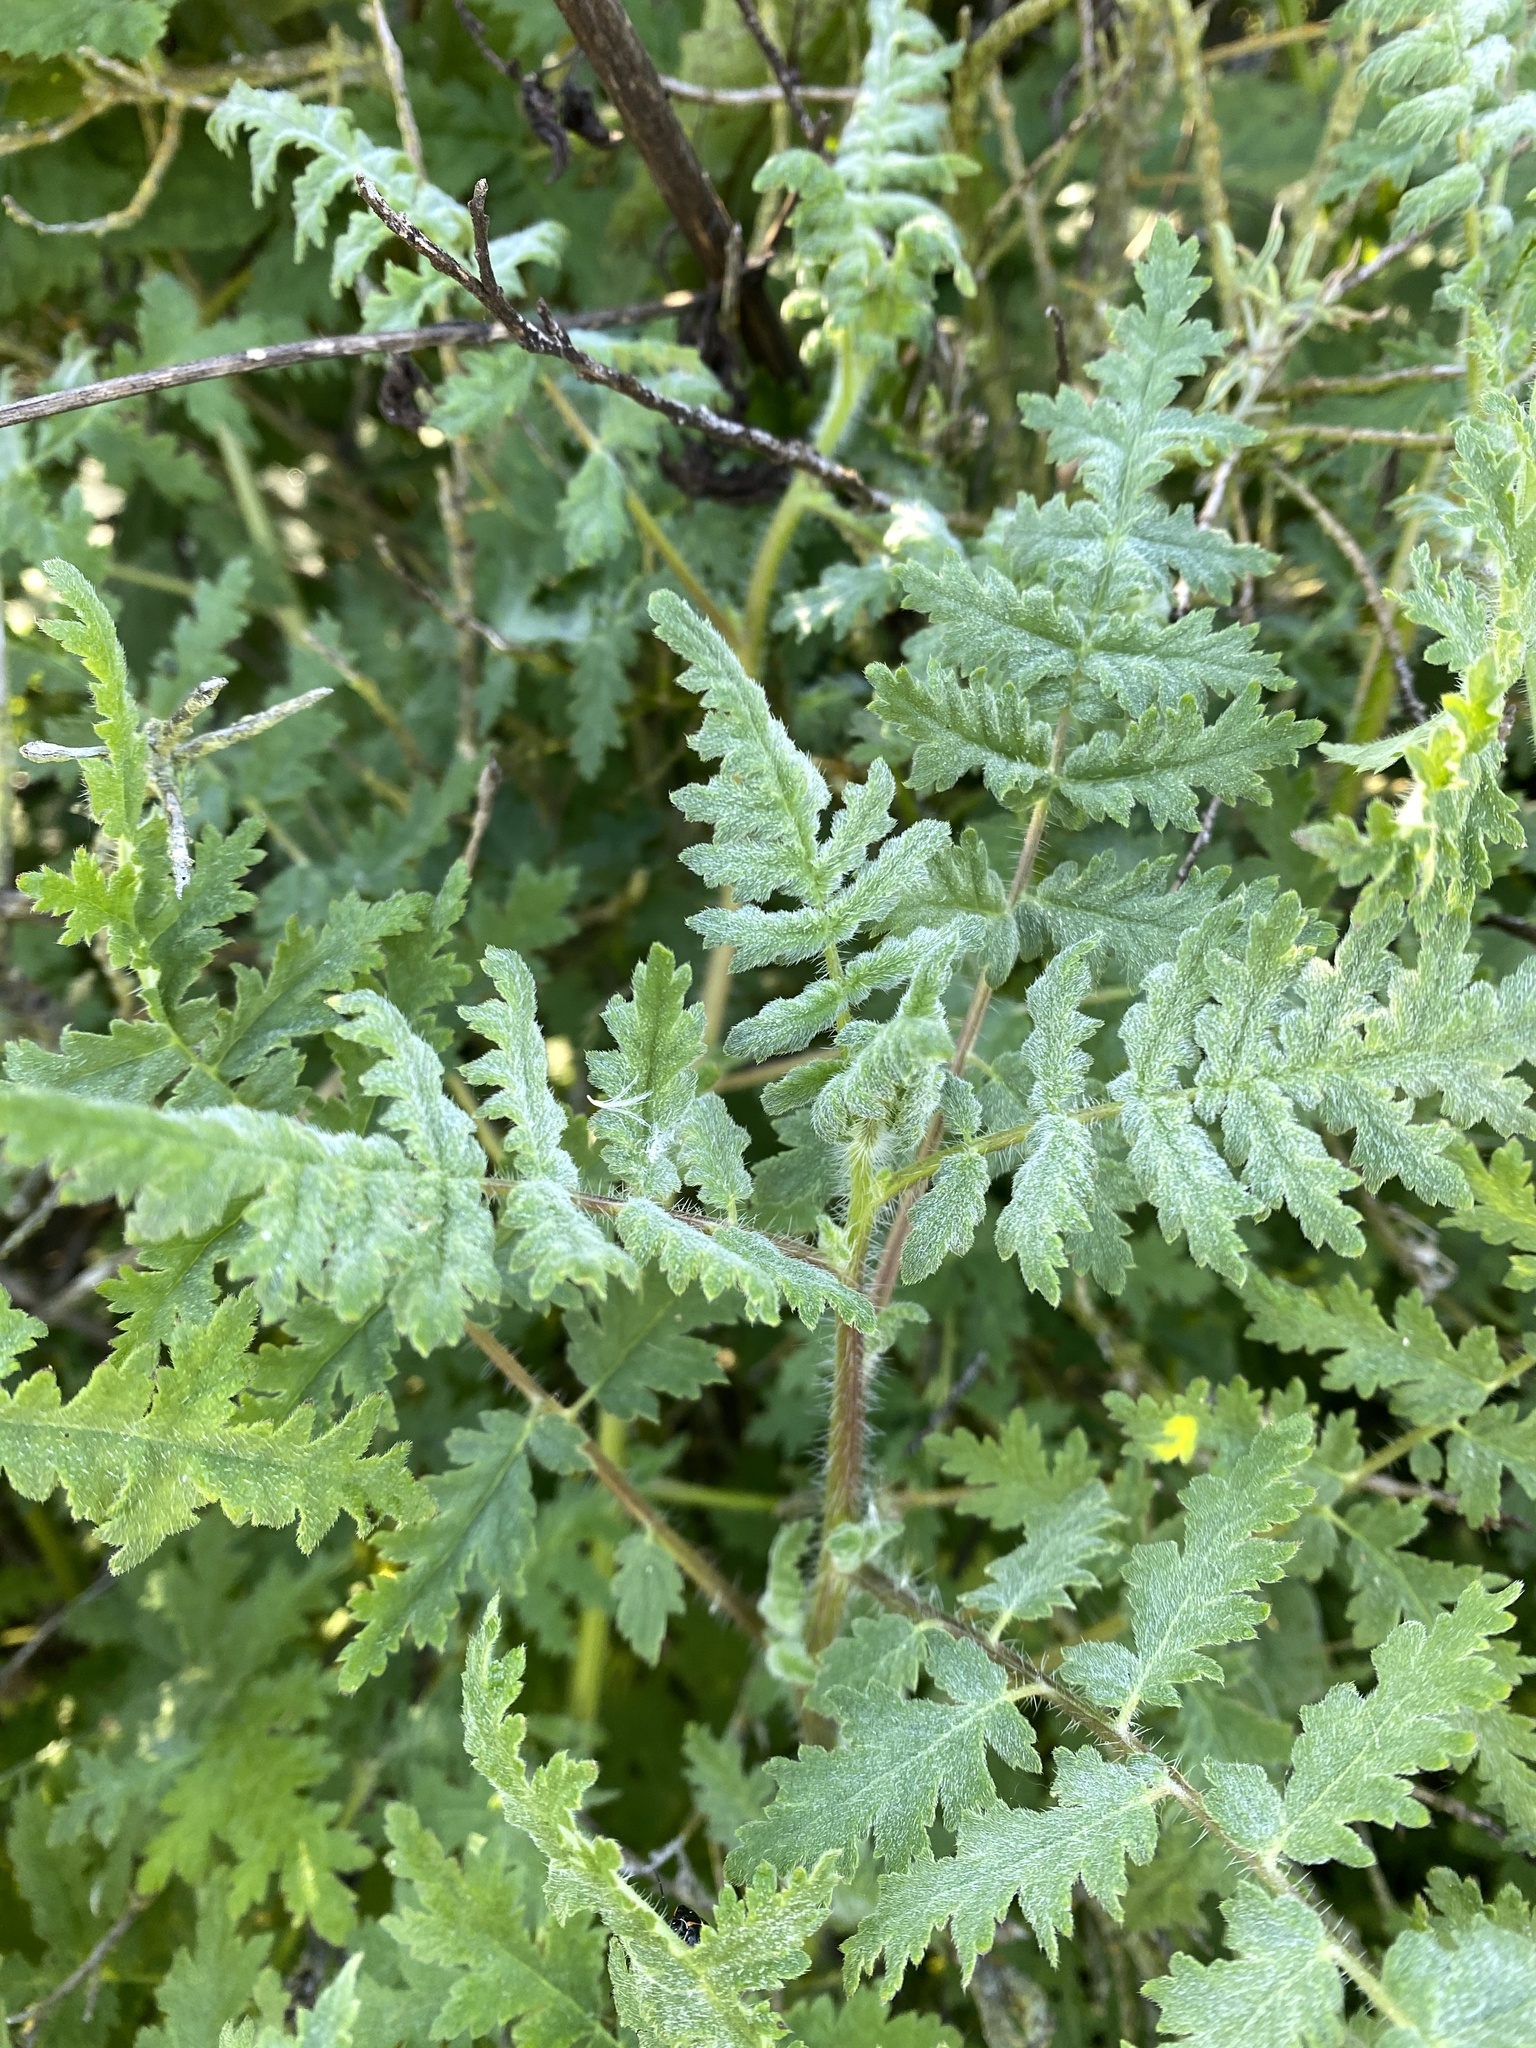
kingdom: Plantae
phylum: Tracheophyta
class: Magnoliopsida
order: Boraginales
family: Hydrophyllaceae
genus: Phacelia
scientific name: Phacelia cicutaria
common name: Caterpillar phacelia
